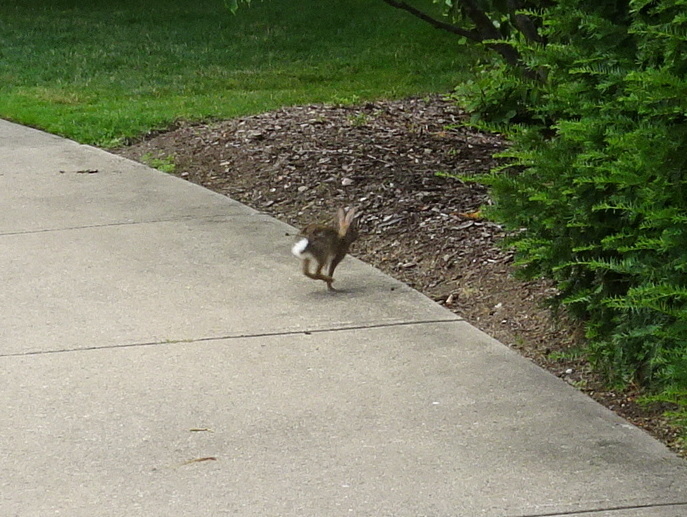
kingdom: Animalia
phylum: Chordata
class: Mammalia
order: Lagomorpha
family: Leporidae
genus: Sylvilagus
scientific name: Sylvilagus floridanus
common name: Eastern cottontail
